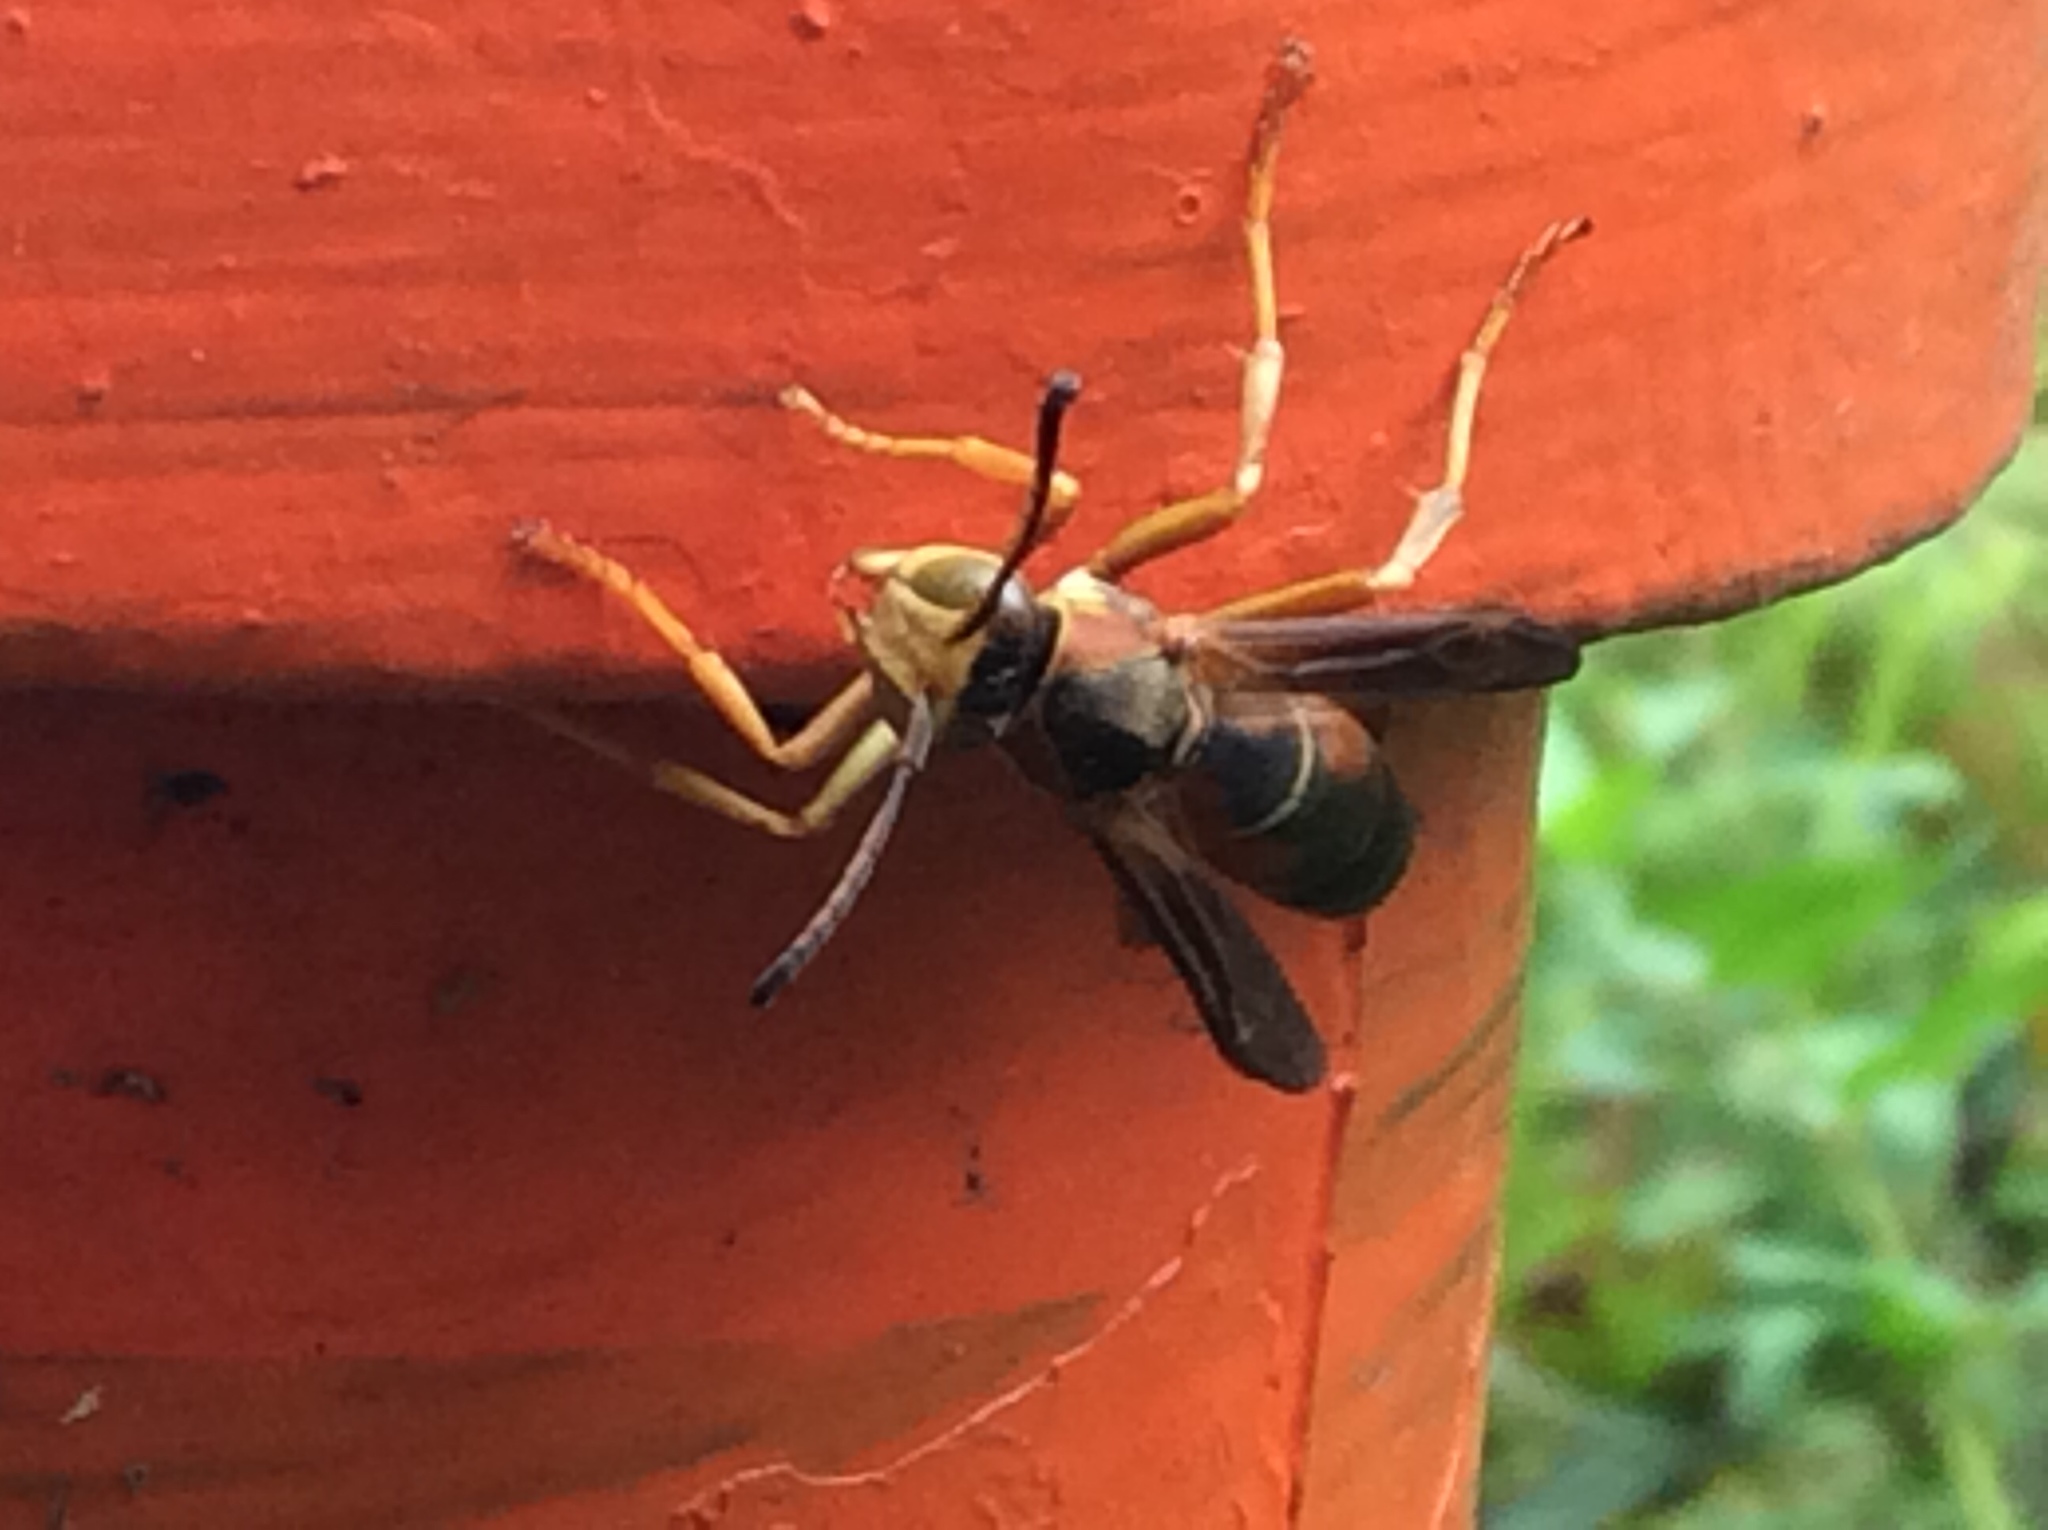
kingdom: Animalia
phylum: Arthropoda
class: Insecta
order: Hymenoptera
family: Eumenidae
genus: Polistes
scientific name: Polistes fuscatus
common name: Dark paper wasp
